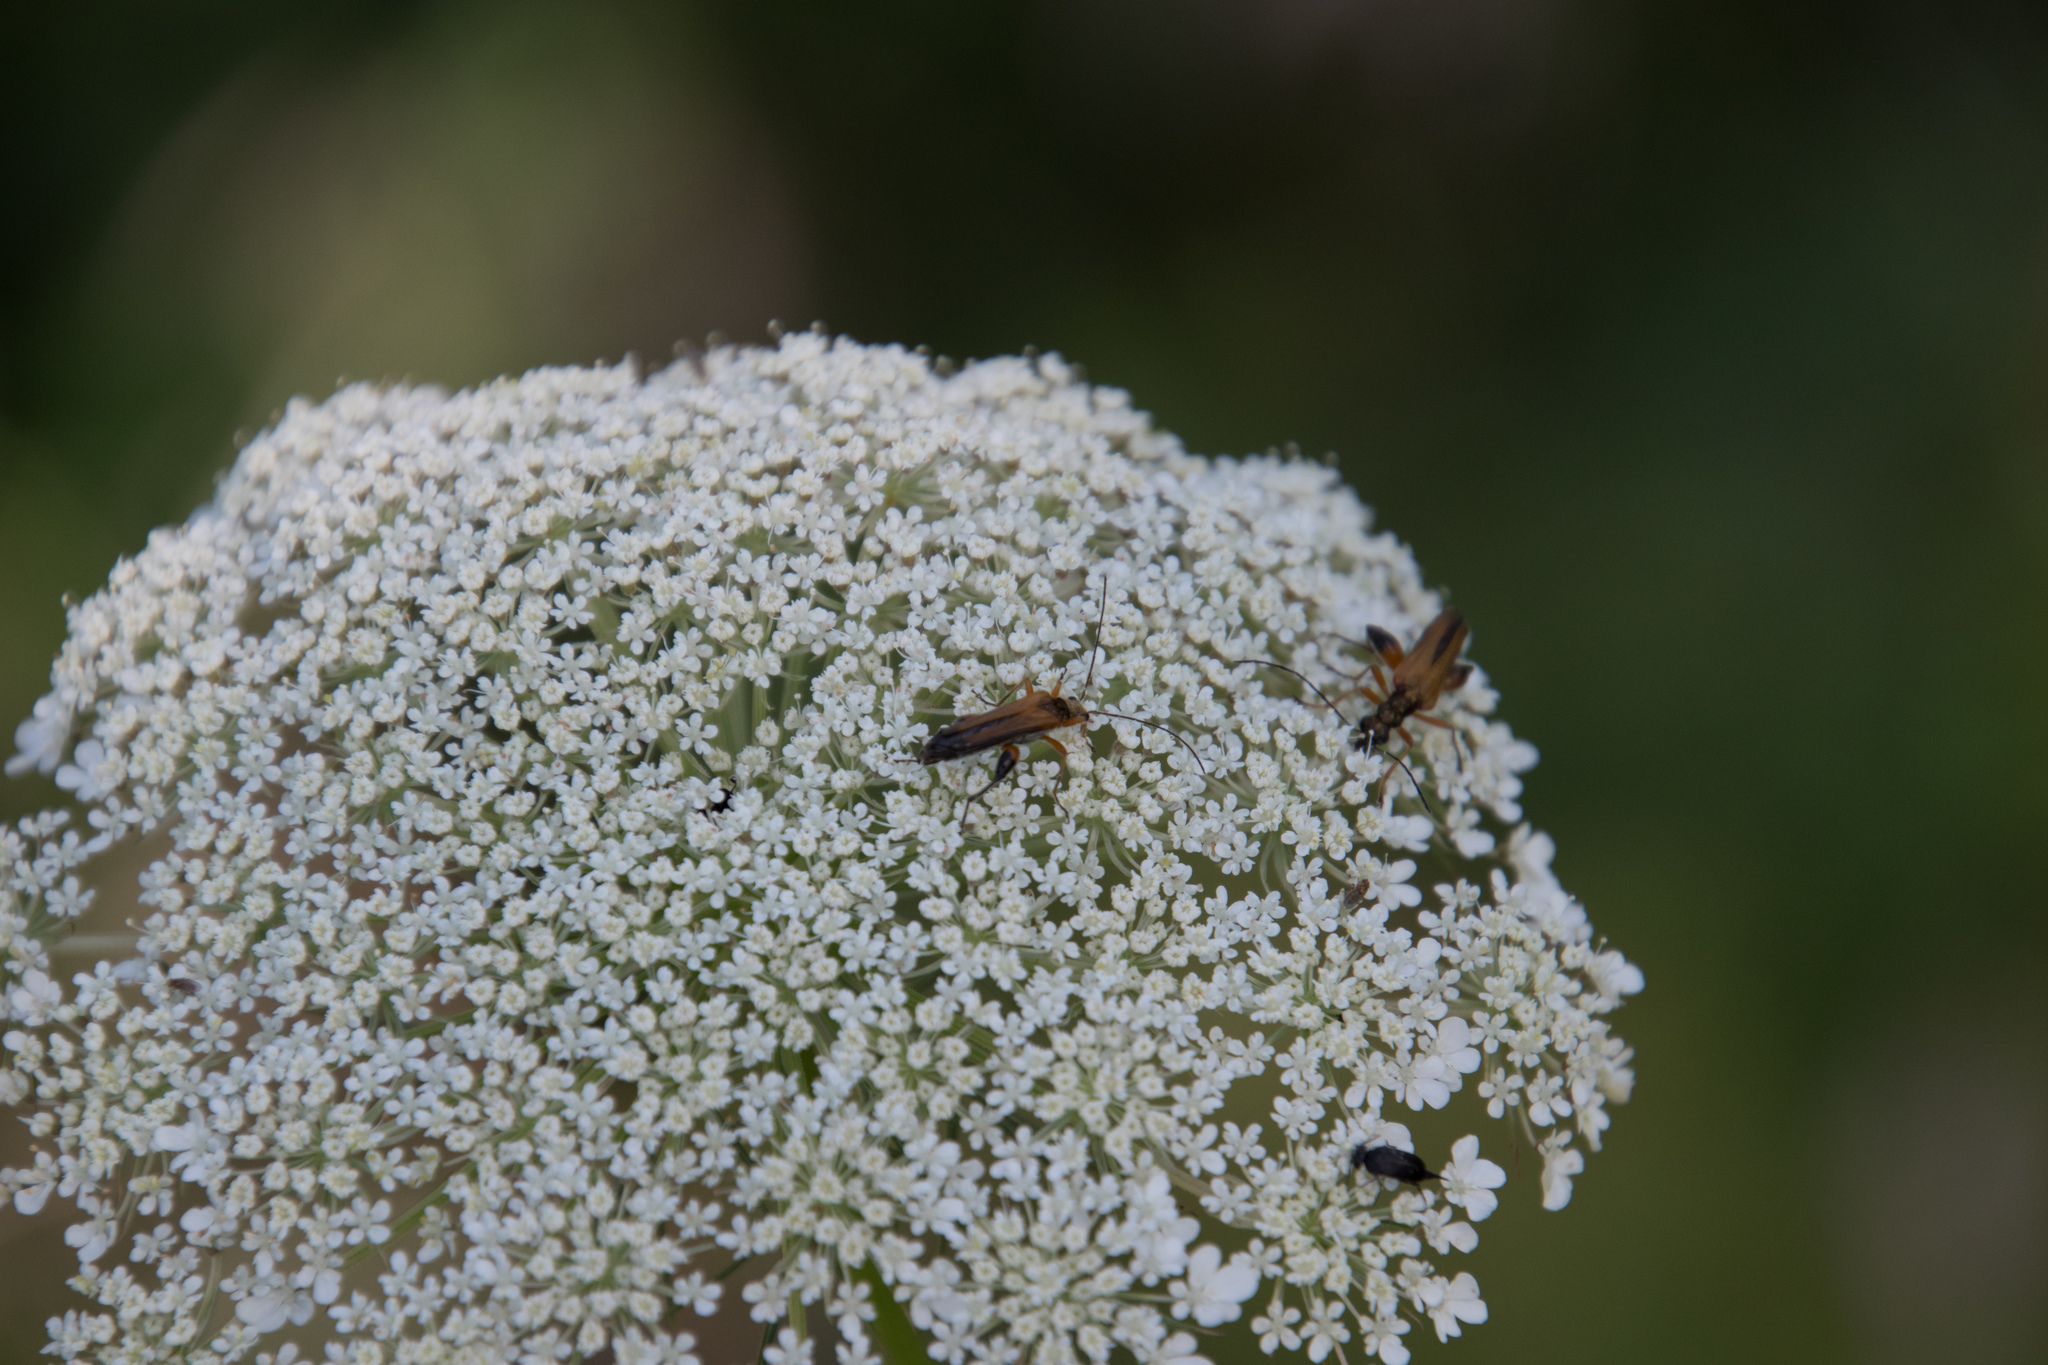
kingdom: Animalia
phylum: Arthropoda
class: Insecta
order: Coleoptera
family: Oedemeridae
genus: Oedemera
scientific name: Oedemera podagrariae
